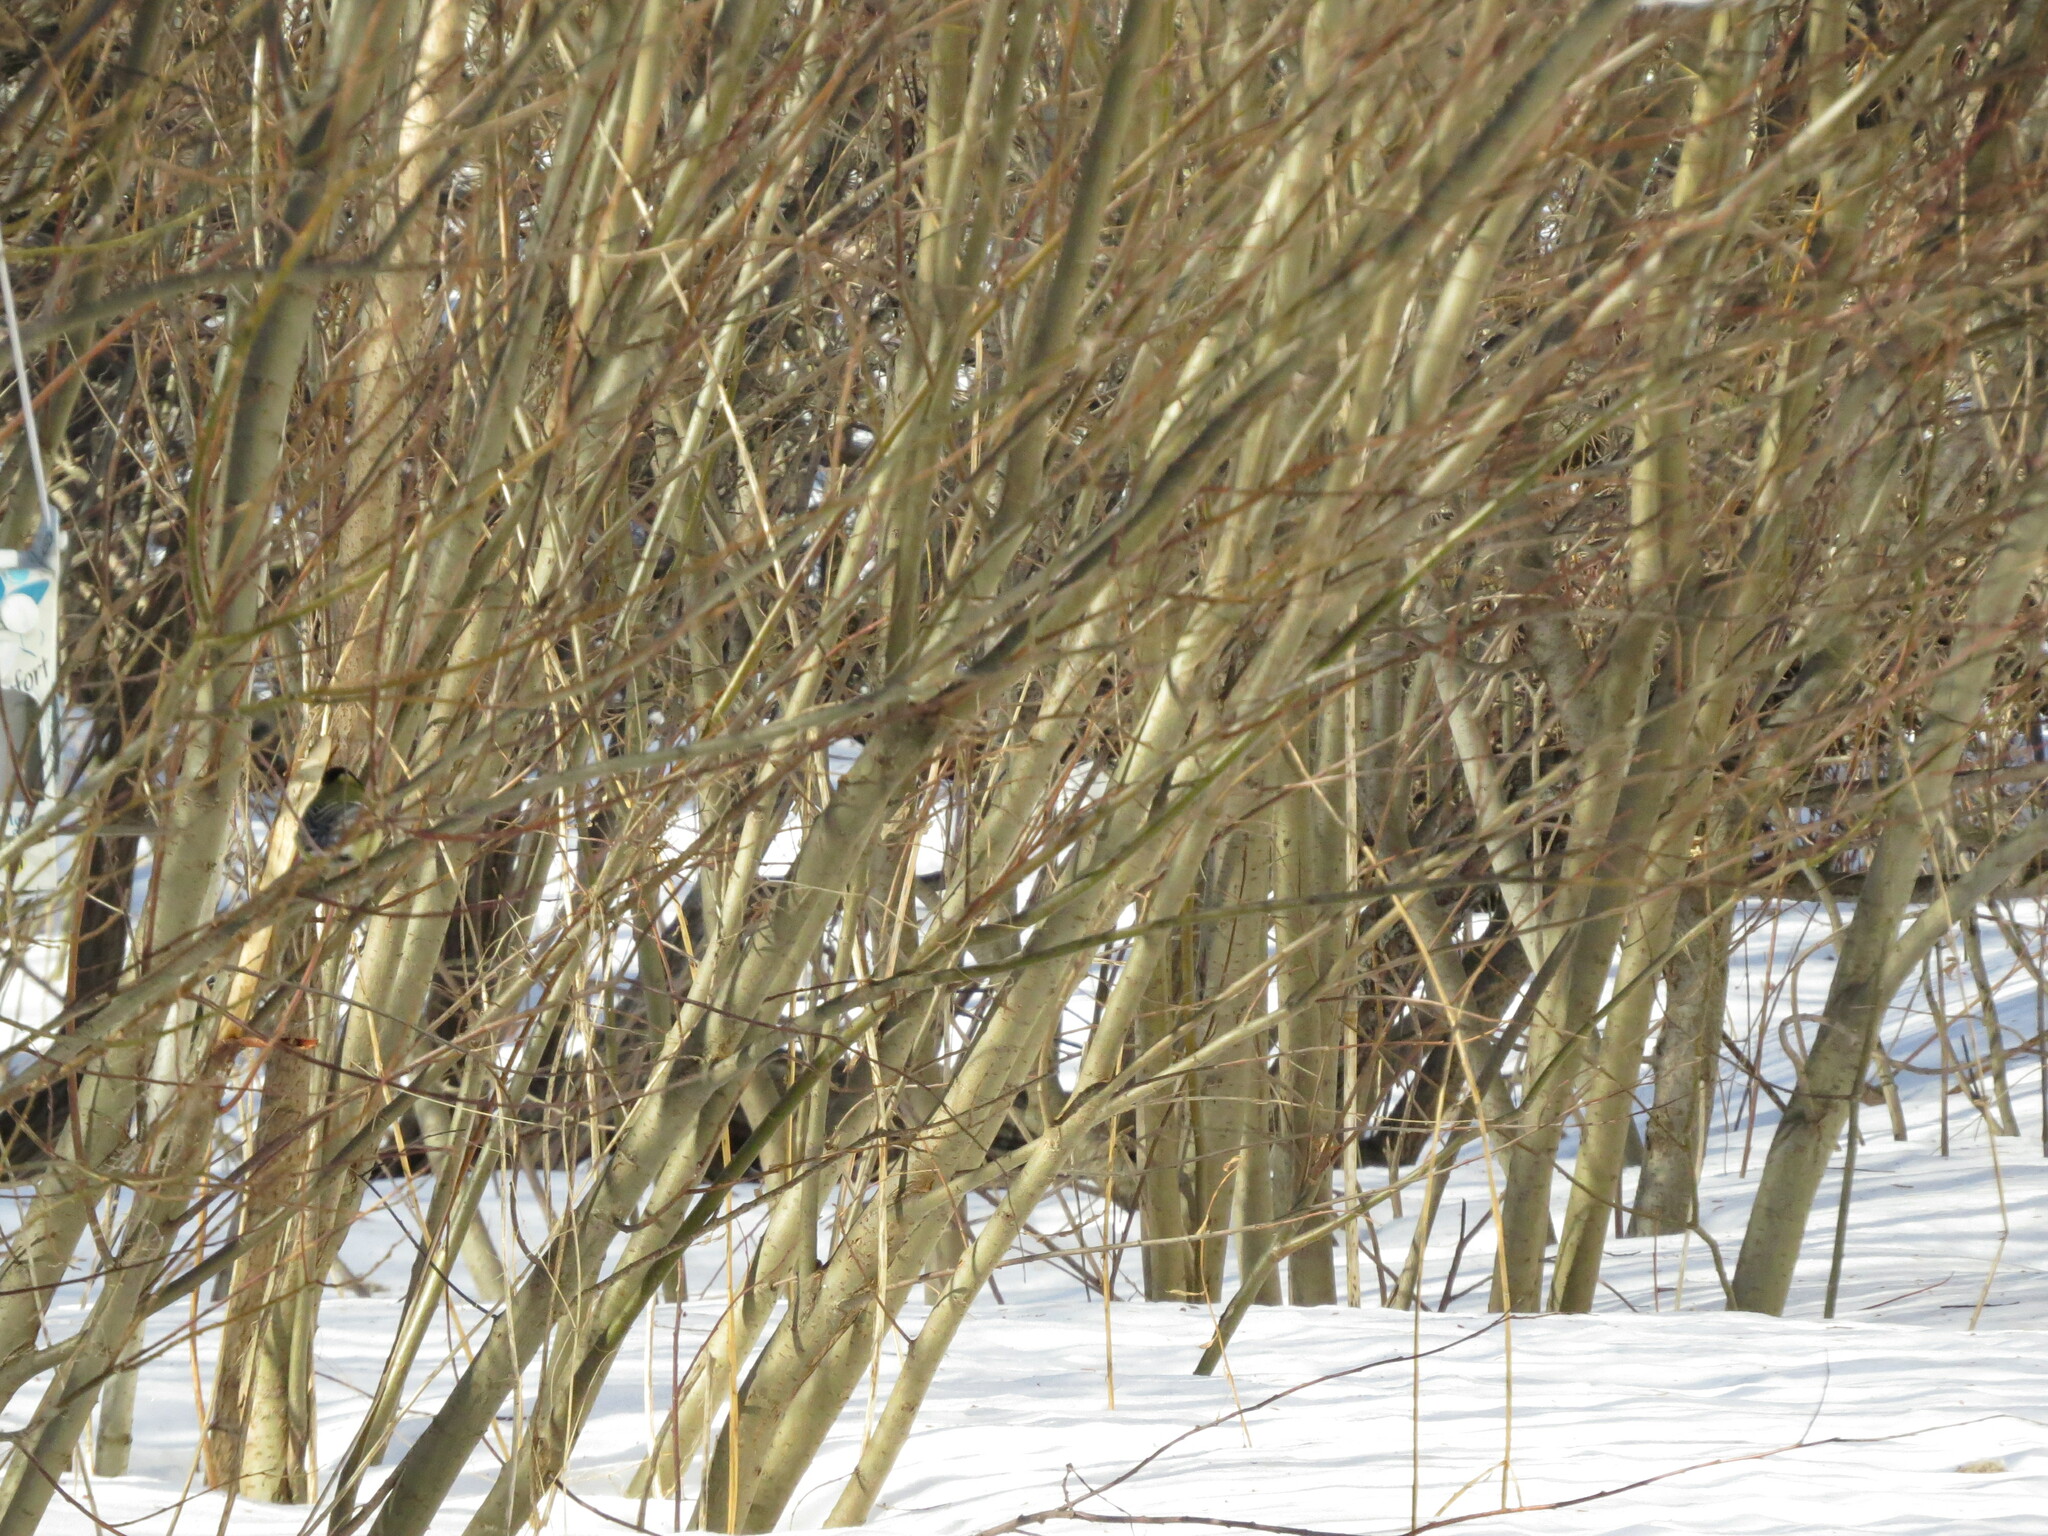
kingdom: Animalia
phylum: Chordata
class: Aves
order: Passeriformes
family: Paridae
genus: Parus
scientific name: Parus major
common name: Great tit
